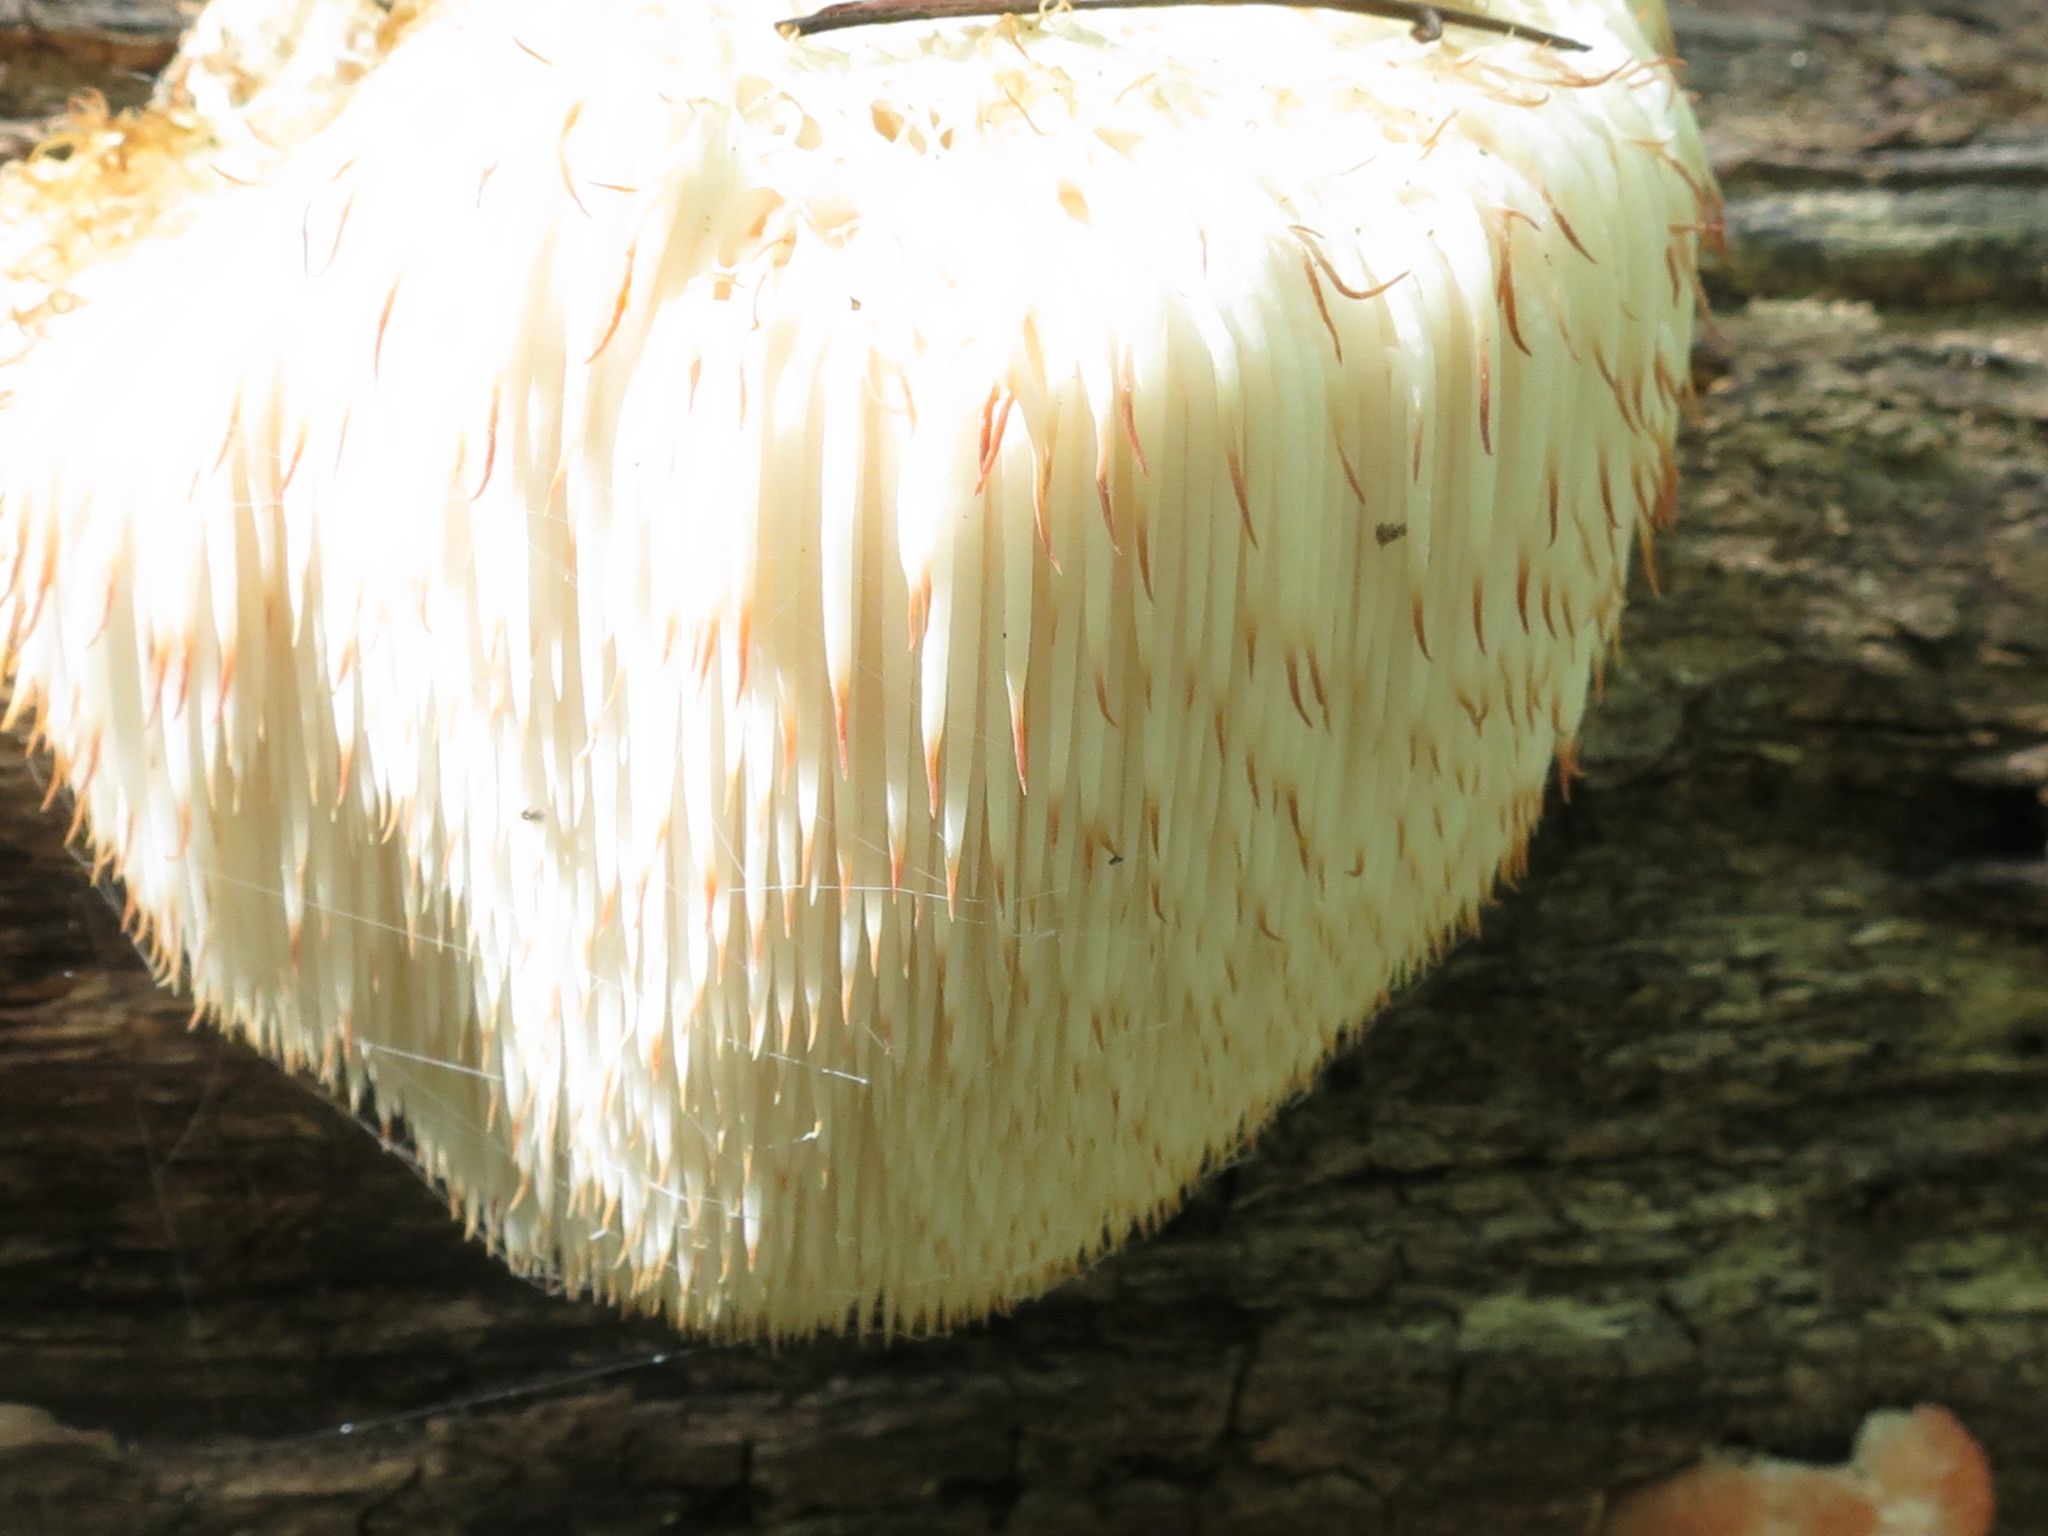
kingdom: Fungi
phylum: Basidiomycota
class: Agaricomycetes
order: Russulales
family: Hericiaceae
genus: Hericium
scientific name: Hericium erinaceus
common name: Bearded tooth
